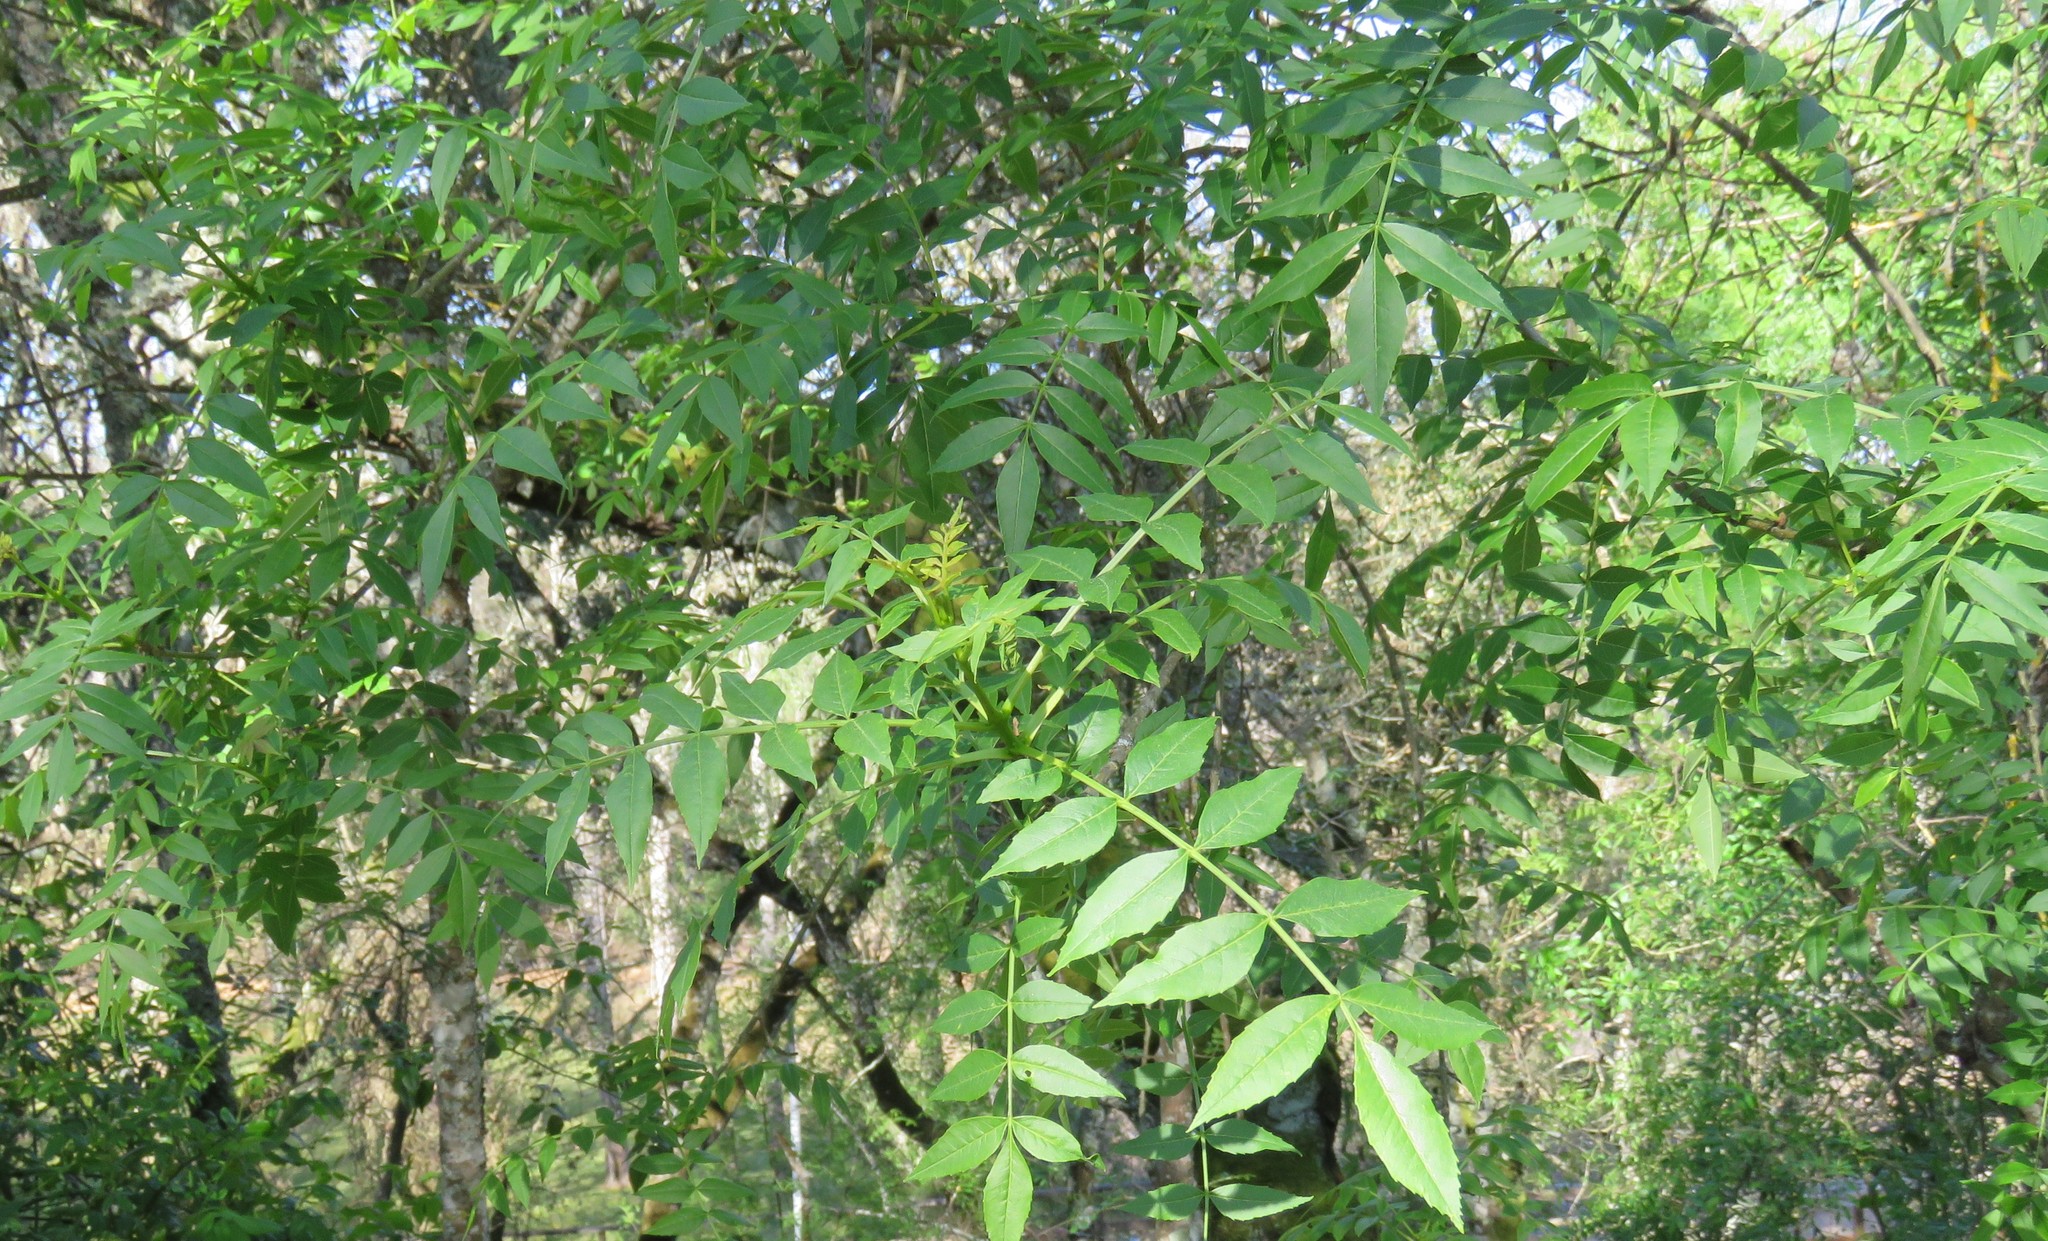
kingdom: Plantae
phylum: Tracheophyta
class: Magnoliopsida
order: Lamiales
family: Oleaceae
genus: Fraxinus
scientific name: Fraxinus angustifolia
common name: Narrow-leafed ash
